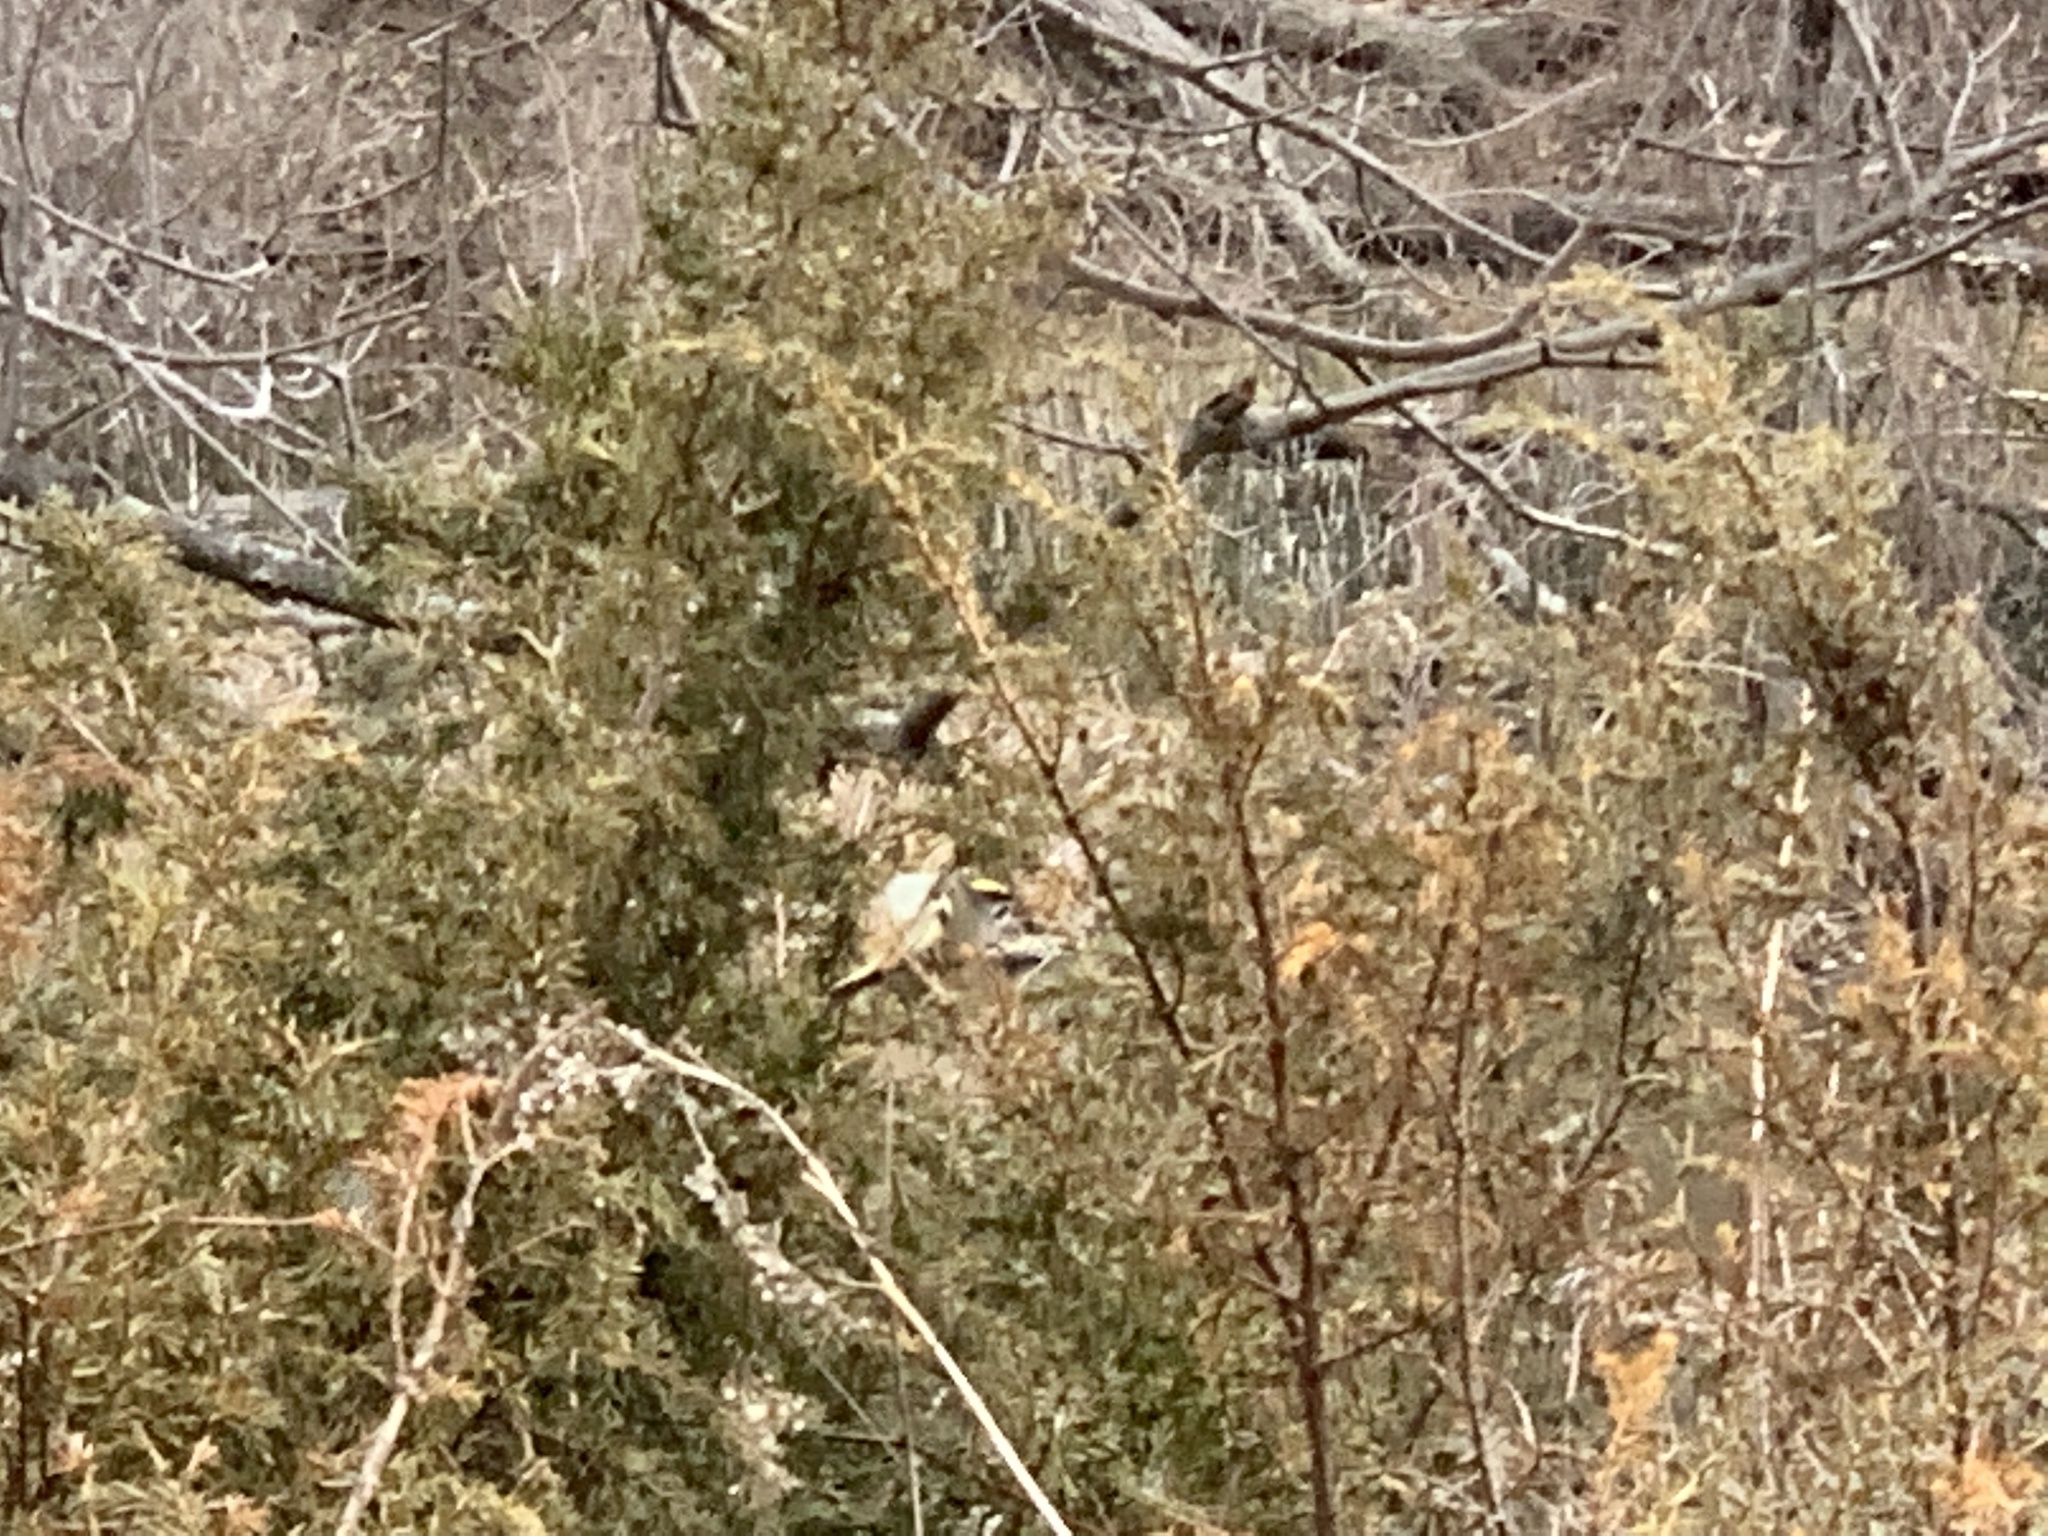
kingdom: Animalia
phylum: Chordata
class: Aves
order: Passeriformes
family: Regulidae
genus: Regulus
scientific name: Regulus satrapa
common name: Golden-crowned kinglet
